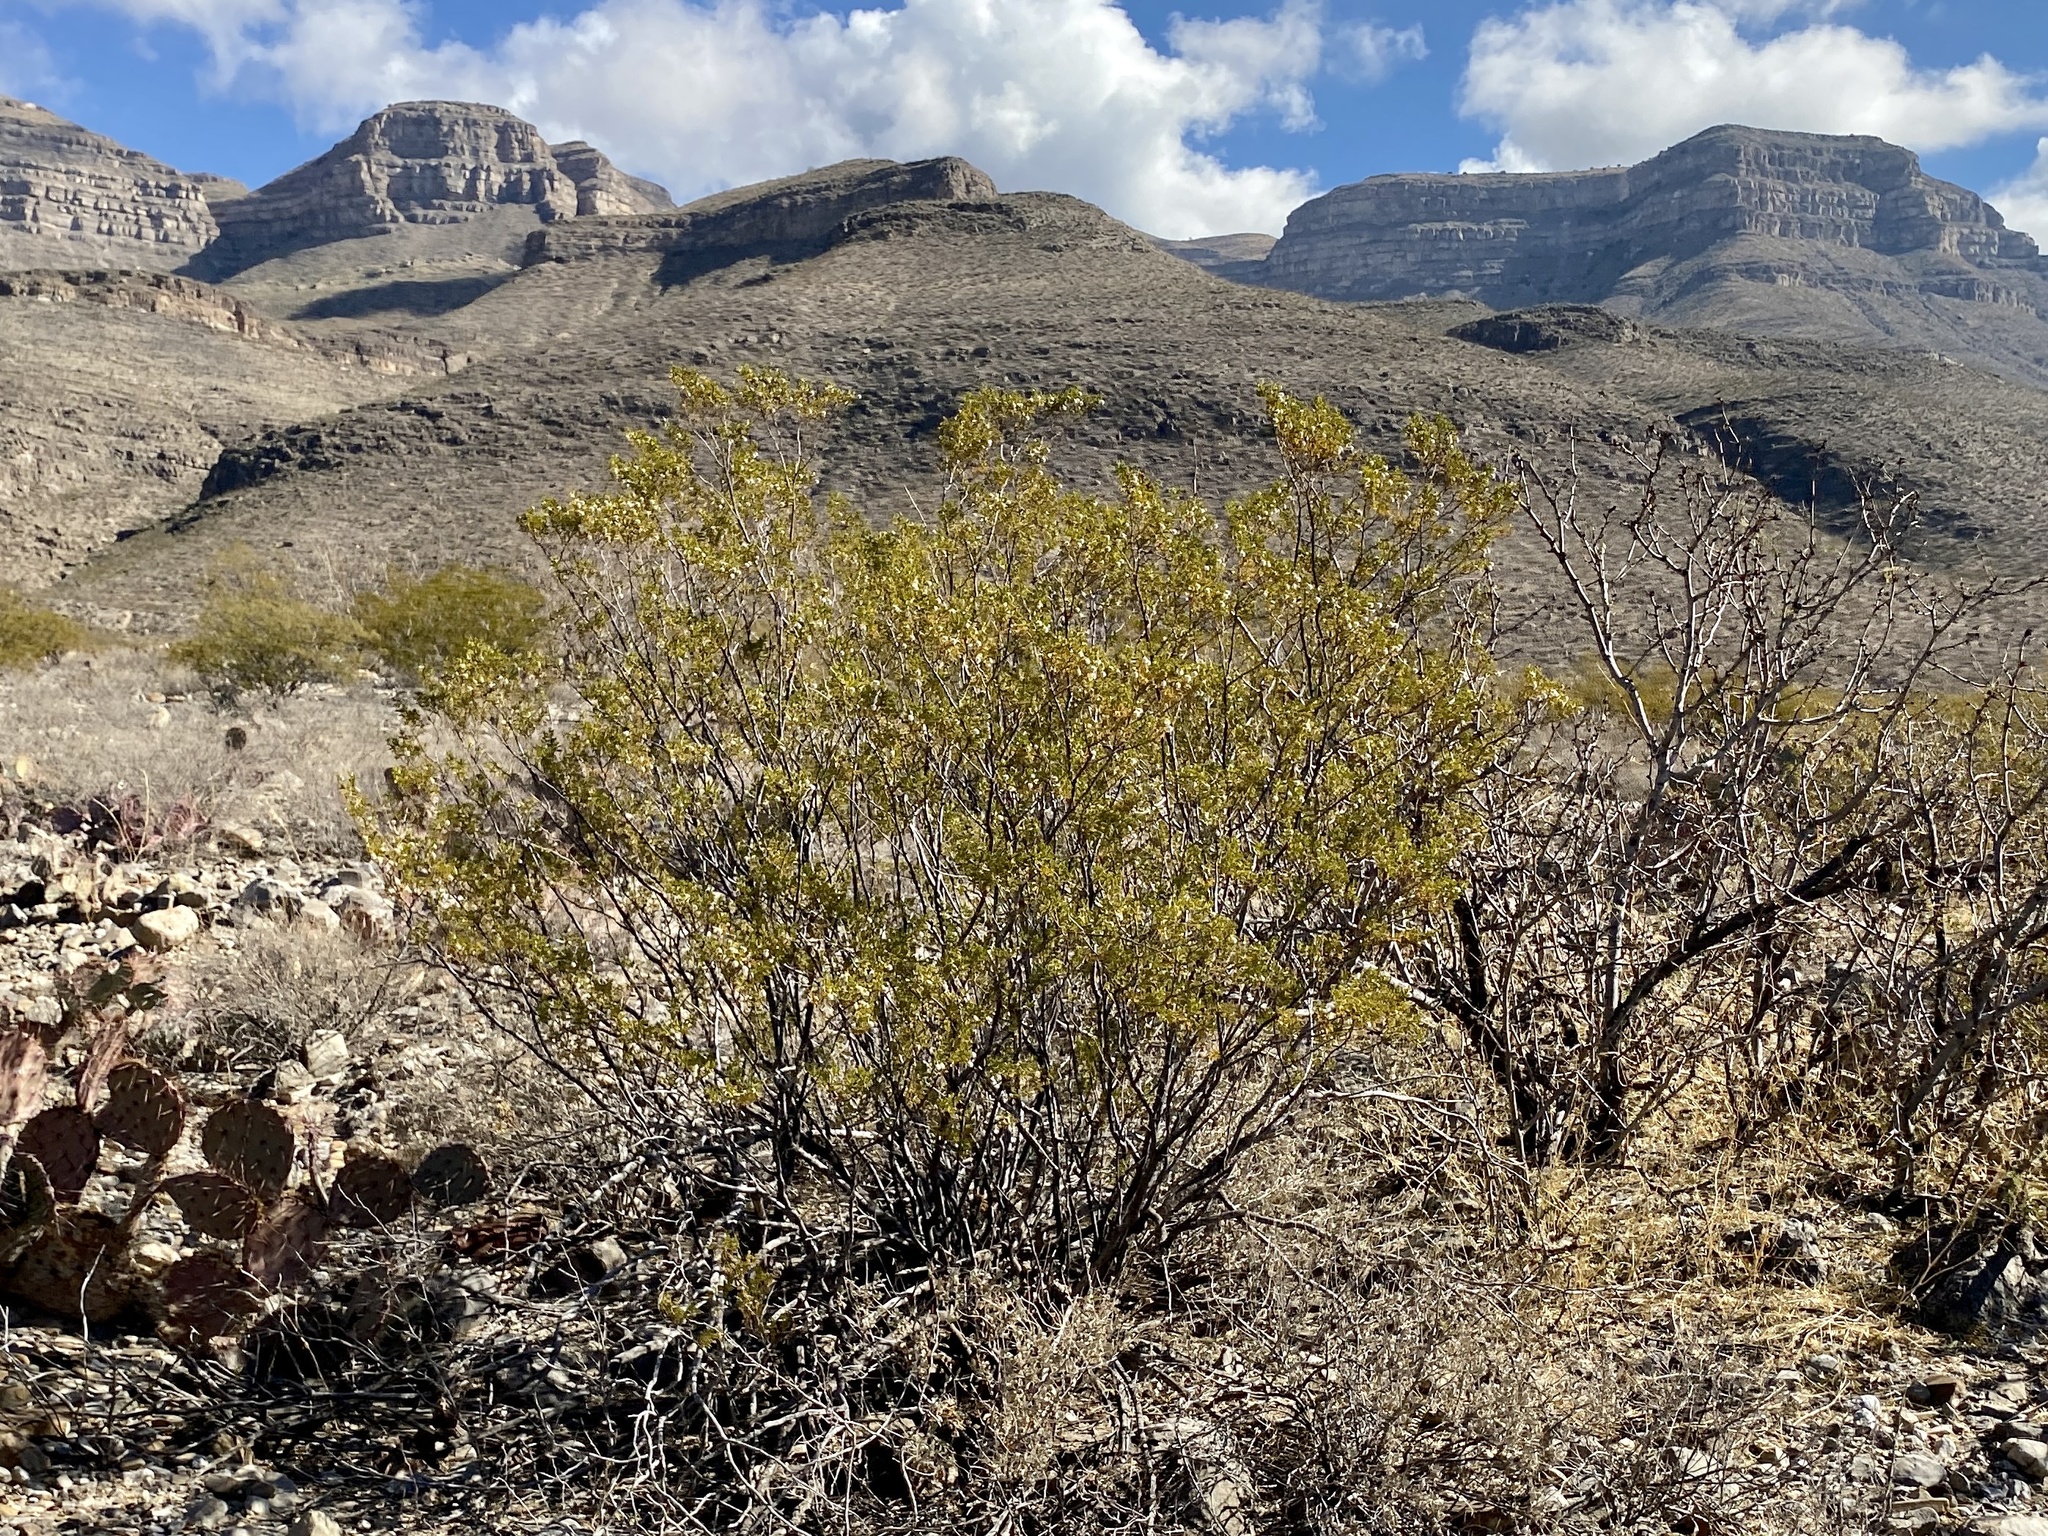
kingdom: Plantae
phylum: Tracheophyta
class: Magnoliopsida
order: Zygophyllales
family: Zygophyllaceae
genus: Larrea
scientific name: Larrea tridentata
